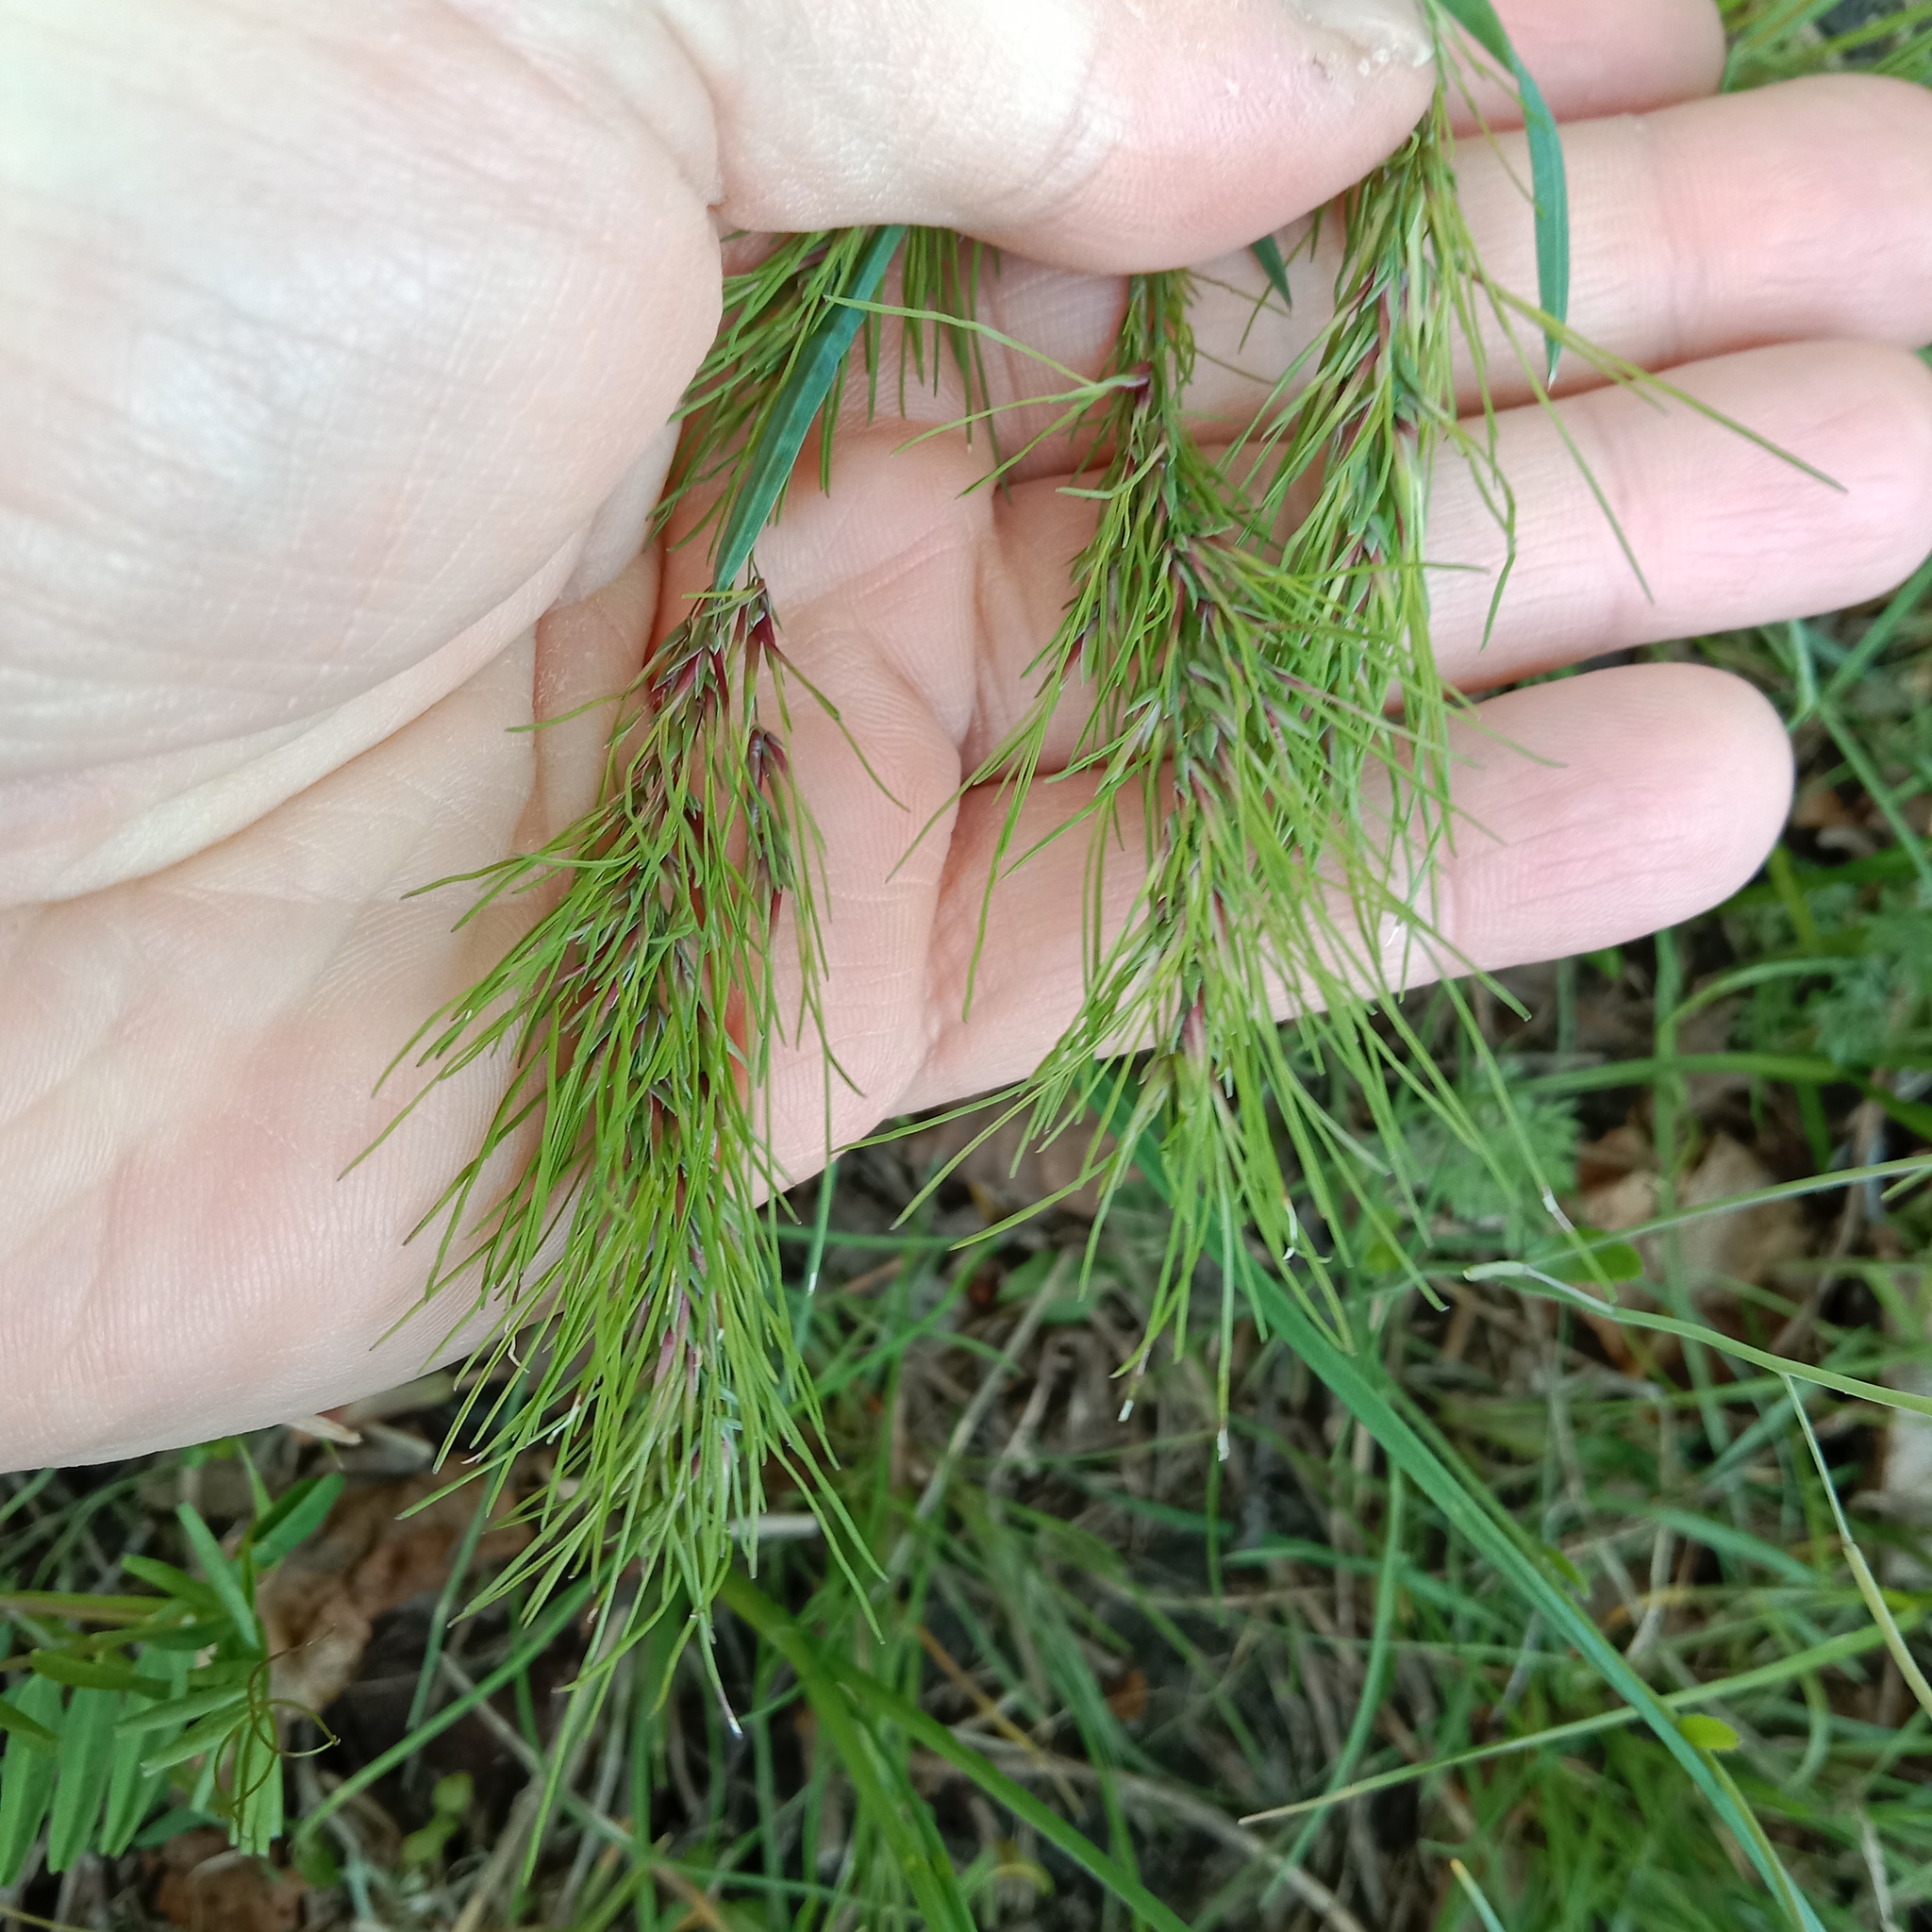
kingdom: Plantae
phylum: Tracheophyta
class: Liliopsida
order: Poales
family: Poaceae
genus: Poa
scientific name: Poa bulbosa
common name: Bulbous bluegrass
